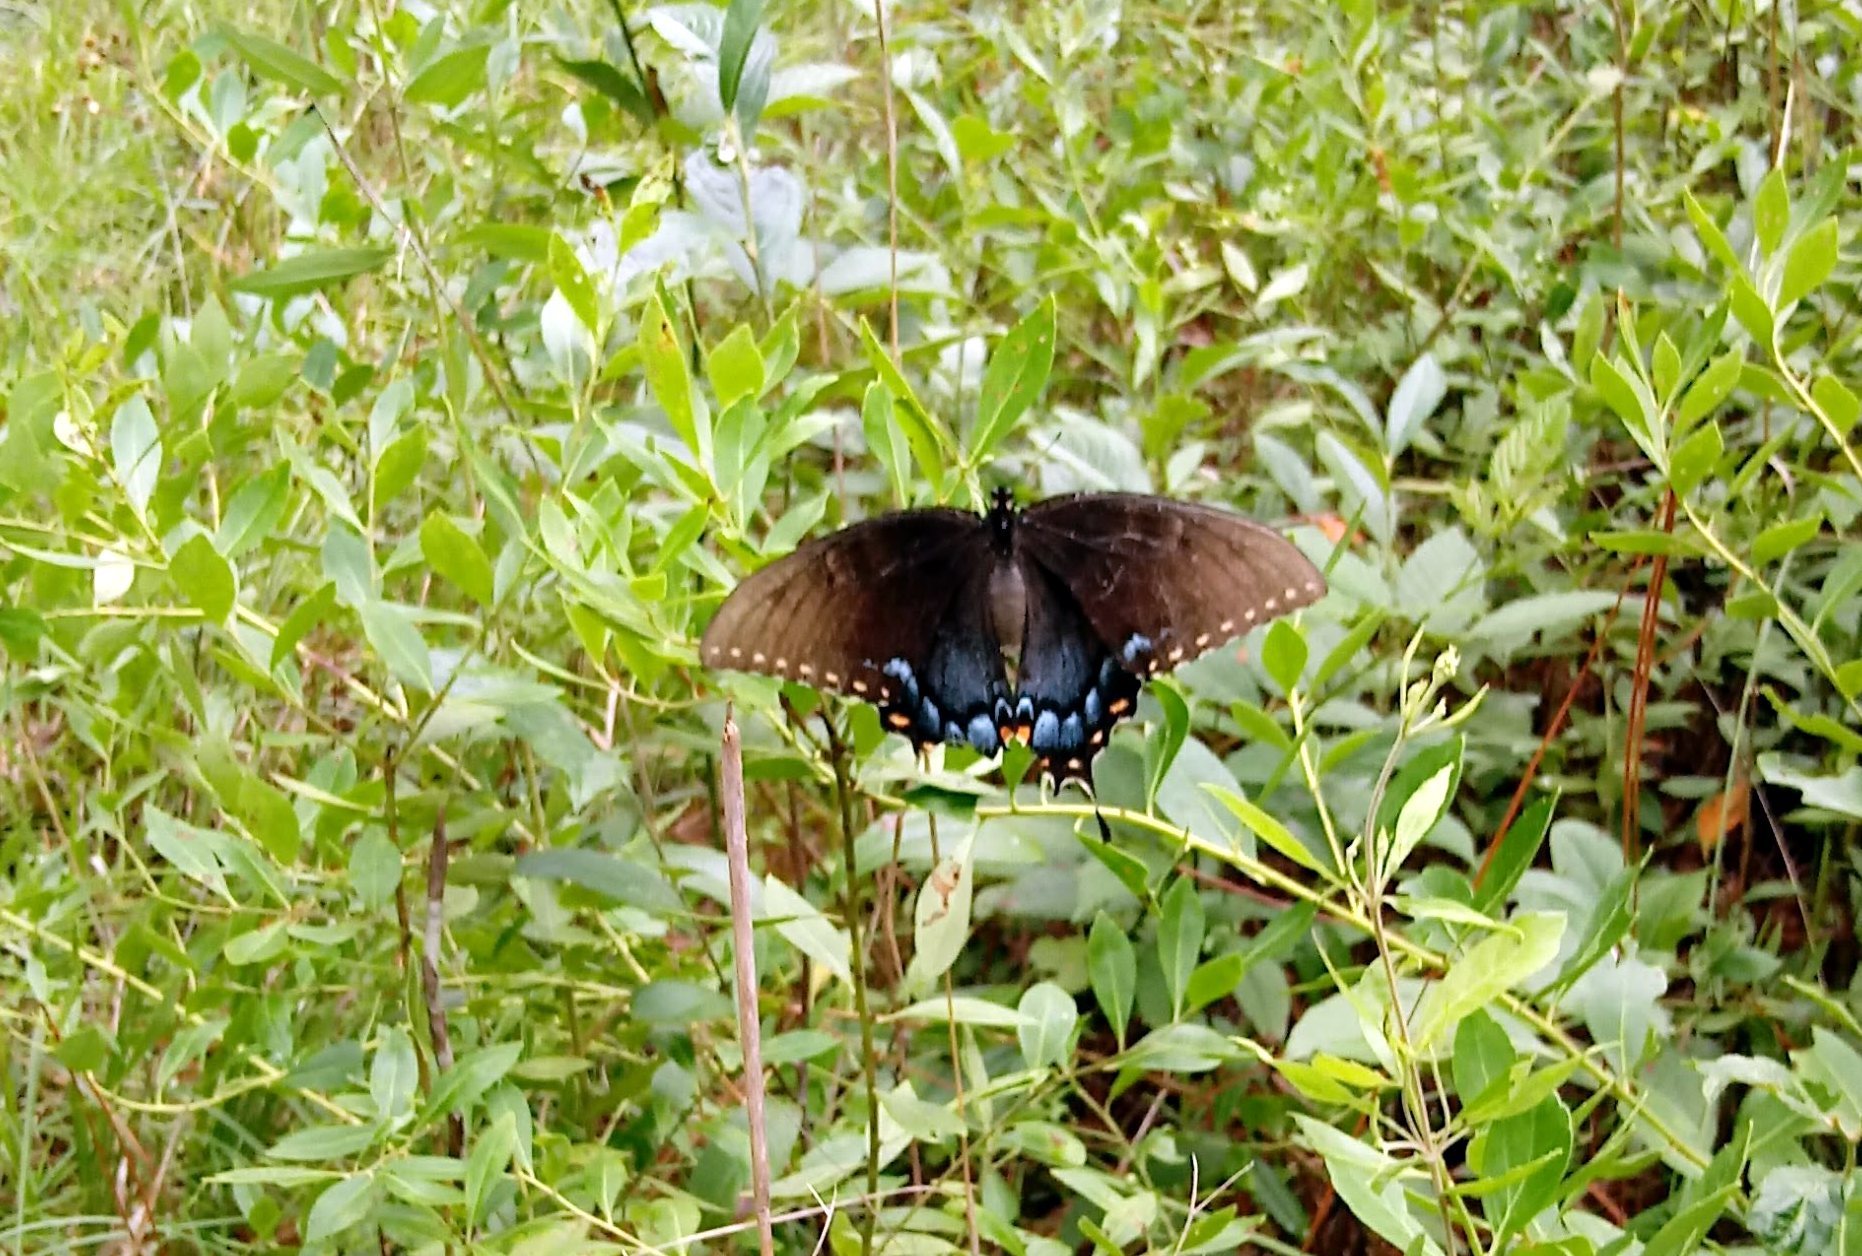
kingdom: Animalia
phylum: Arthropoda
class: Insecta
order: Lepidoptera
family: Papilionidae
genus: Papilio
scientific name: Papilio glaucus
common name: Tiger swallowtail
